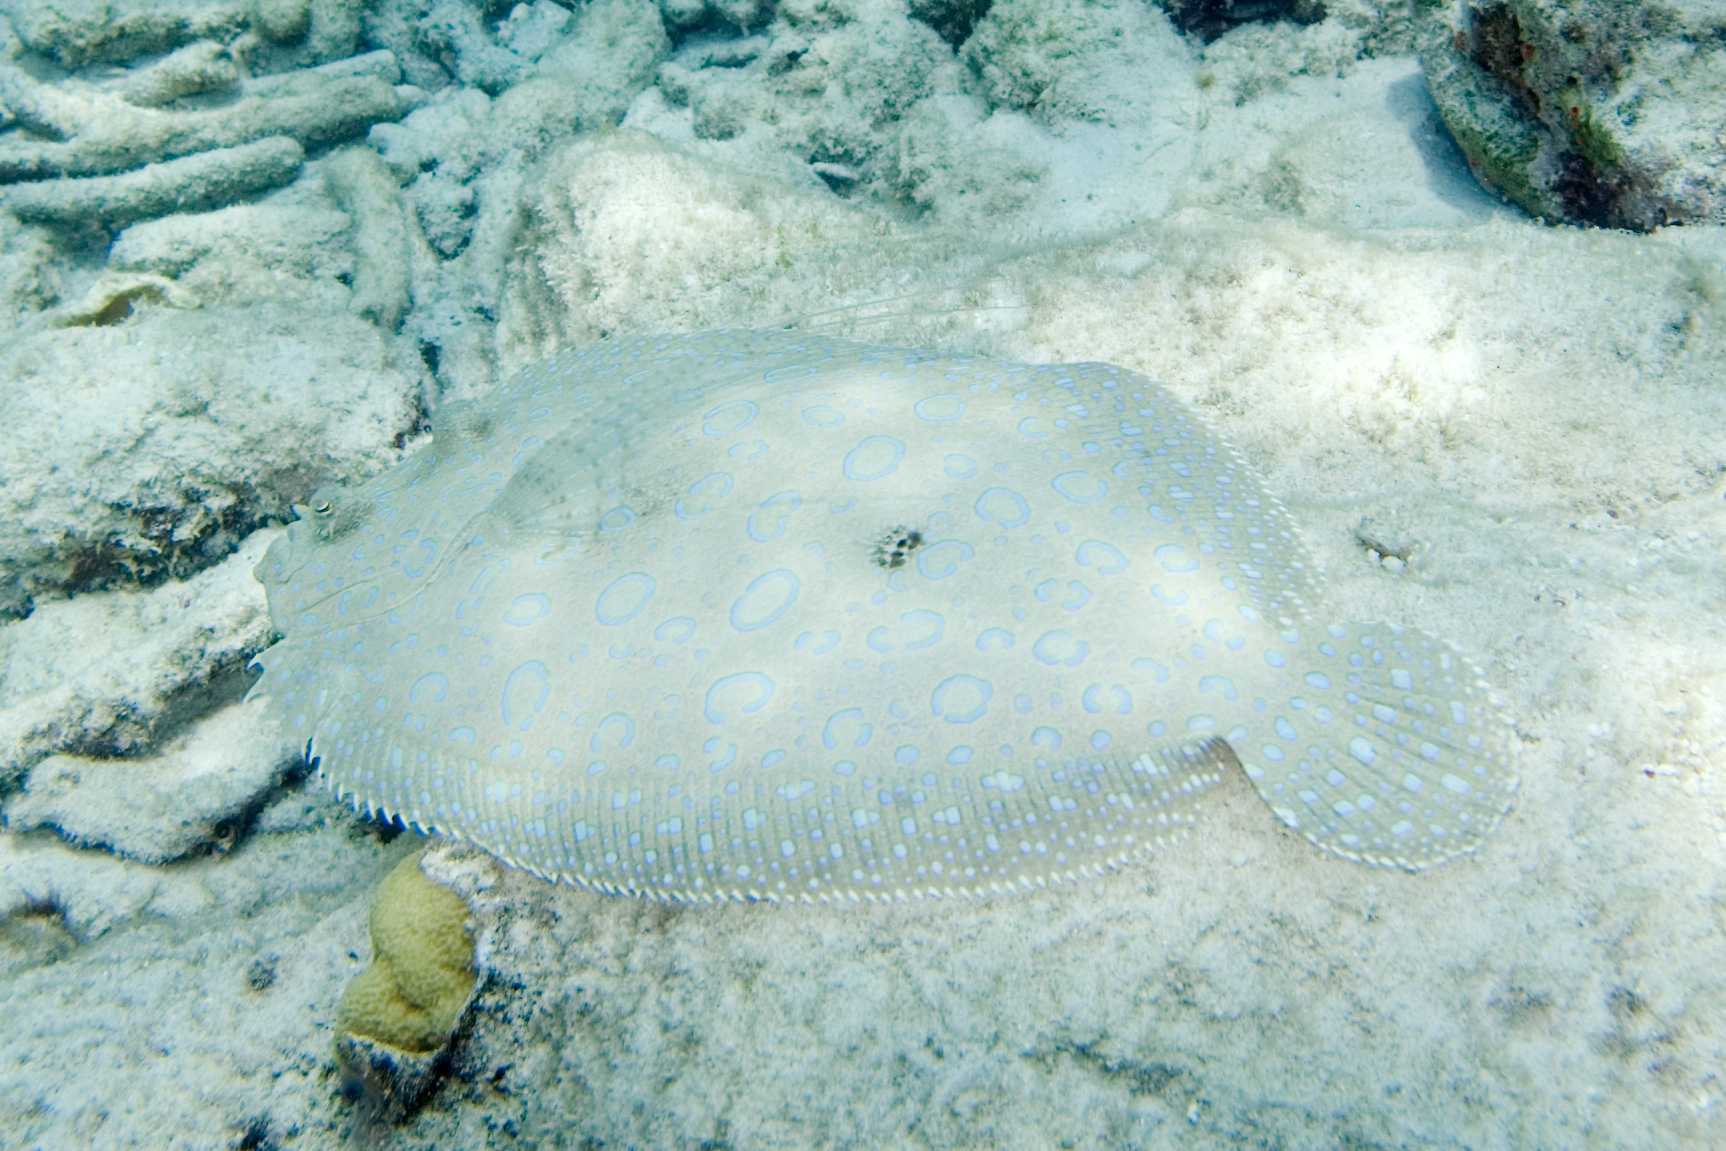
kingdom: Animalia
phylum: Chordata
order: Pleuronectiformes
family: Bothidae
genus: Bothus
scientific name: Bothus lunatus
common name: Peacock flounder
